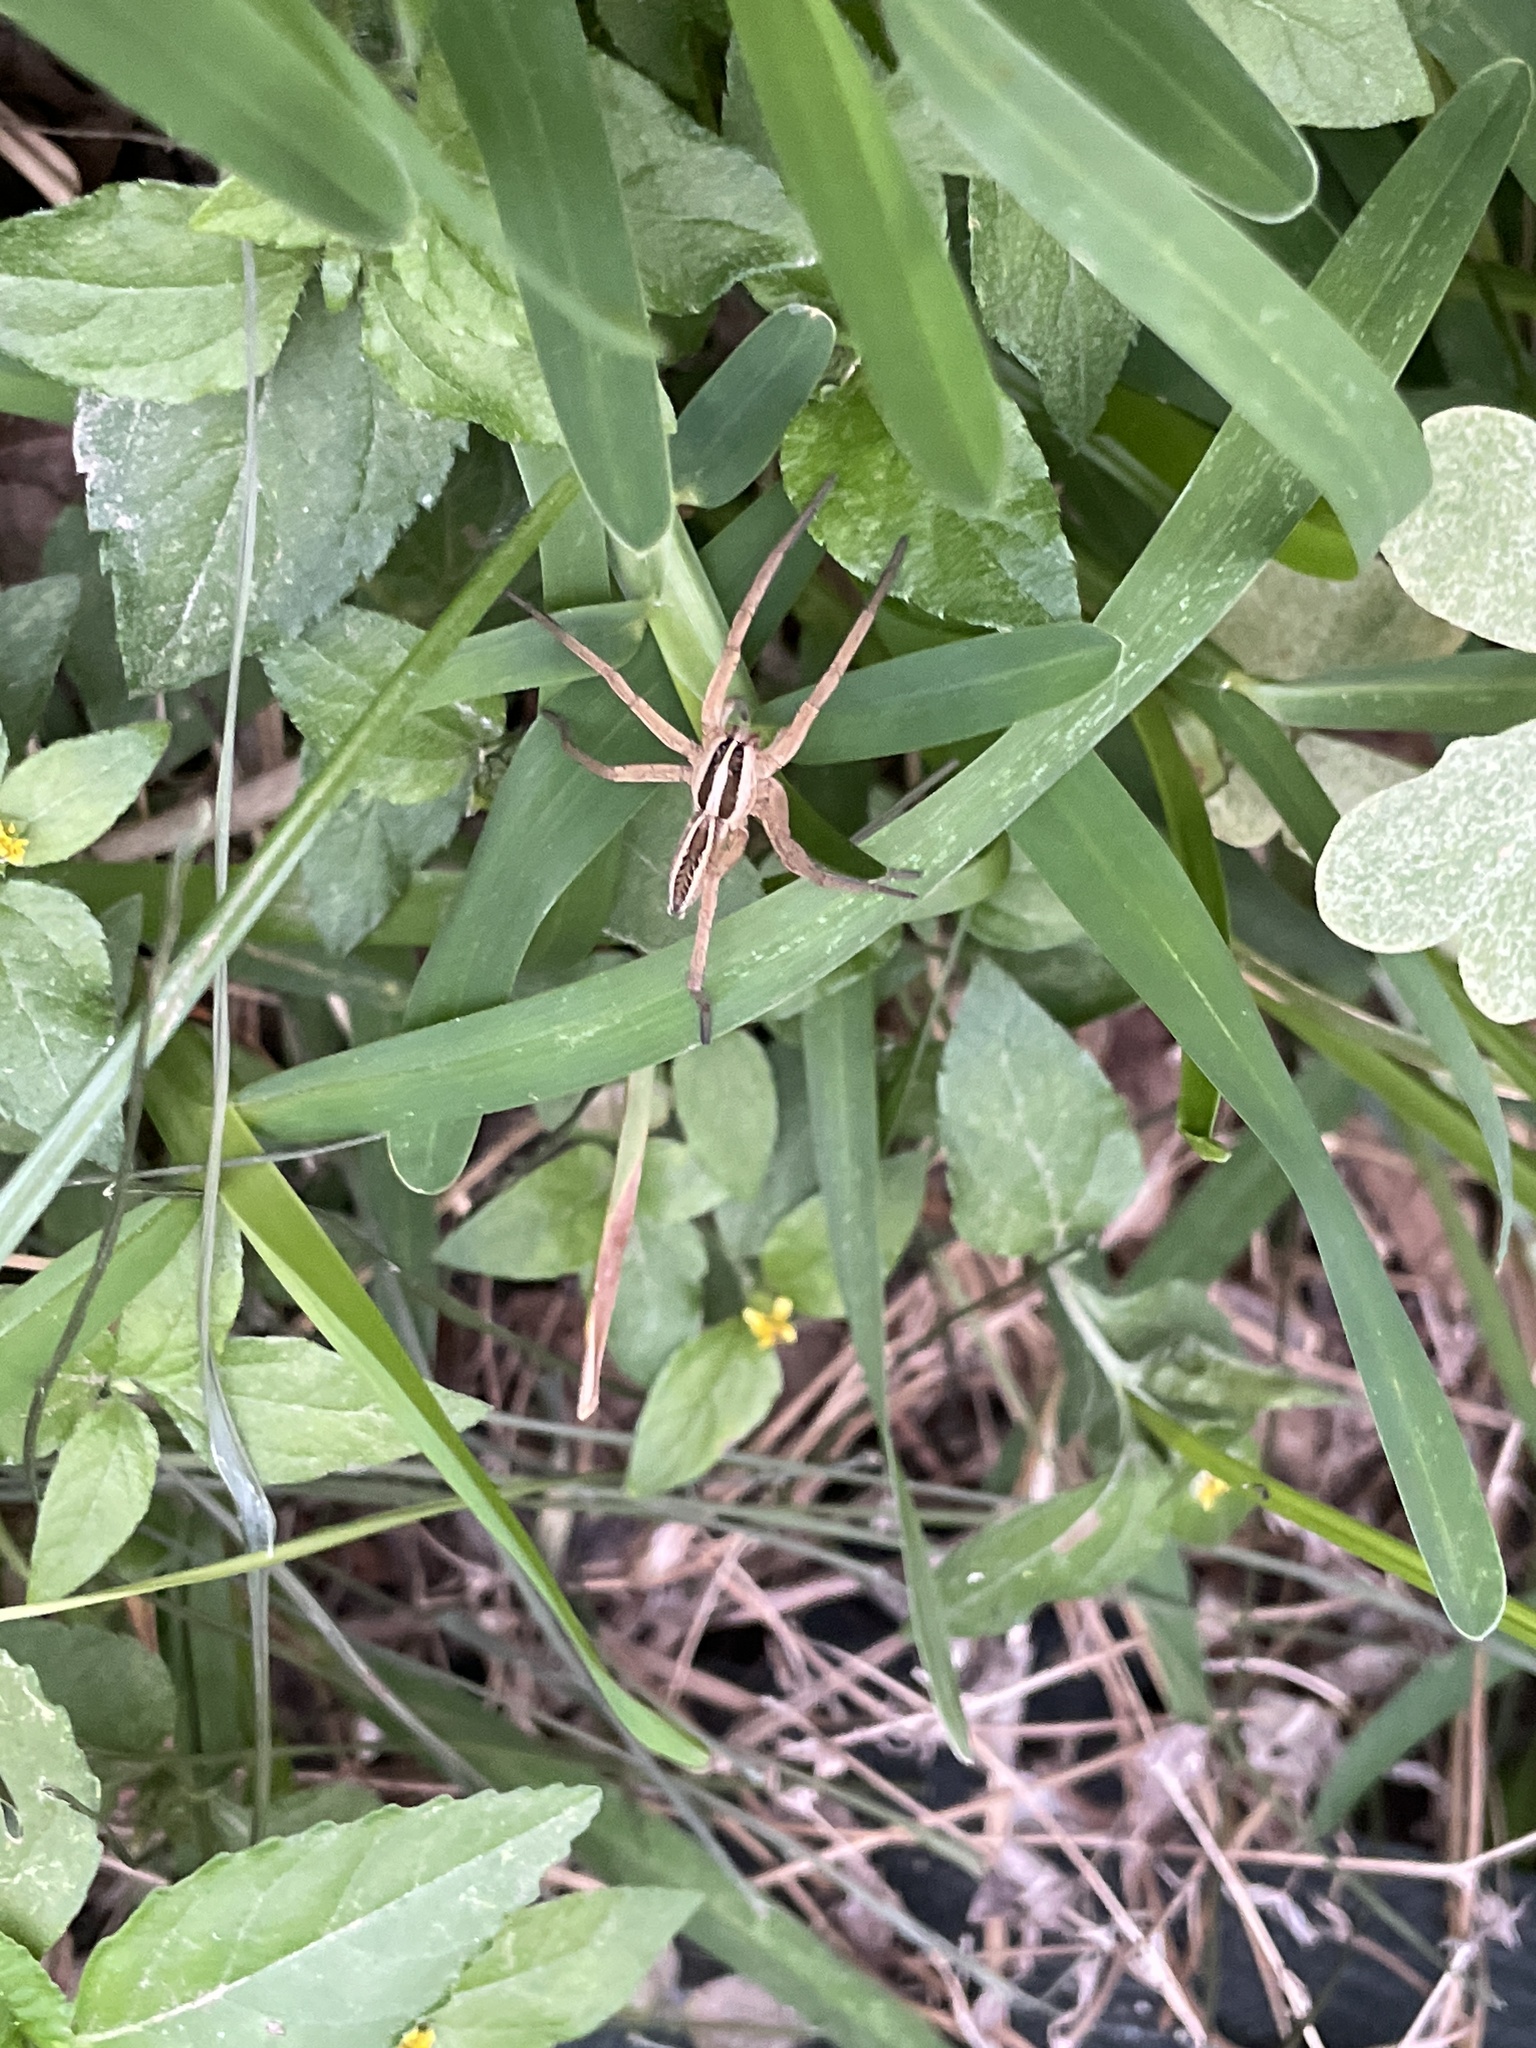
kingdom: Animalia
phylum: Arthropoda
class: Arachnida
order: Araneae
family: Lycosidae
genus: Rabidosa
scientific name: Rabidosa rabida
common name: Rabid wolf spider
